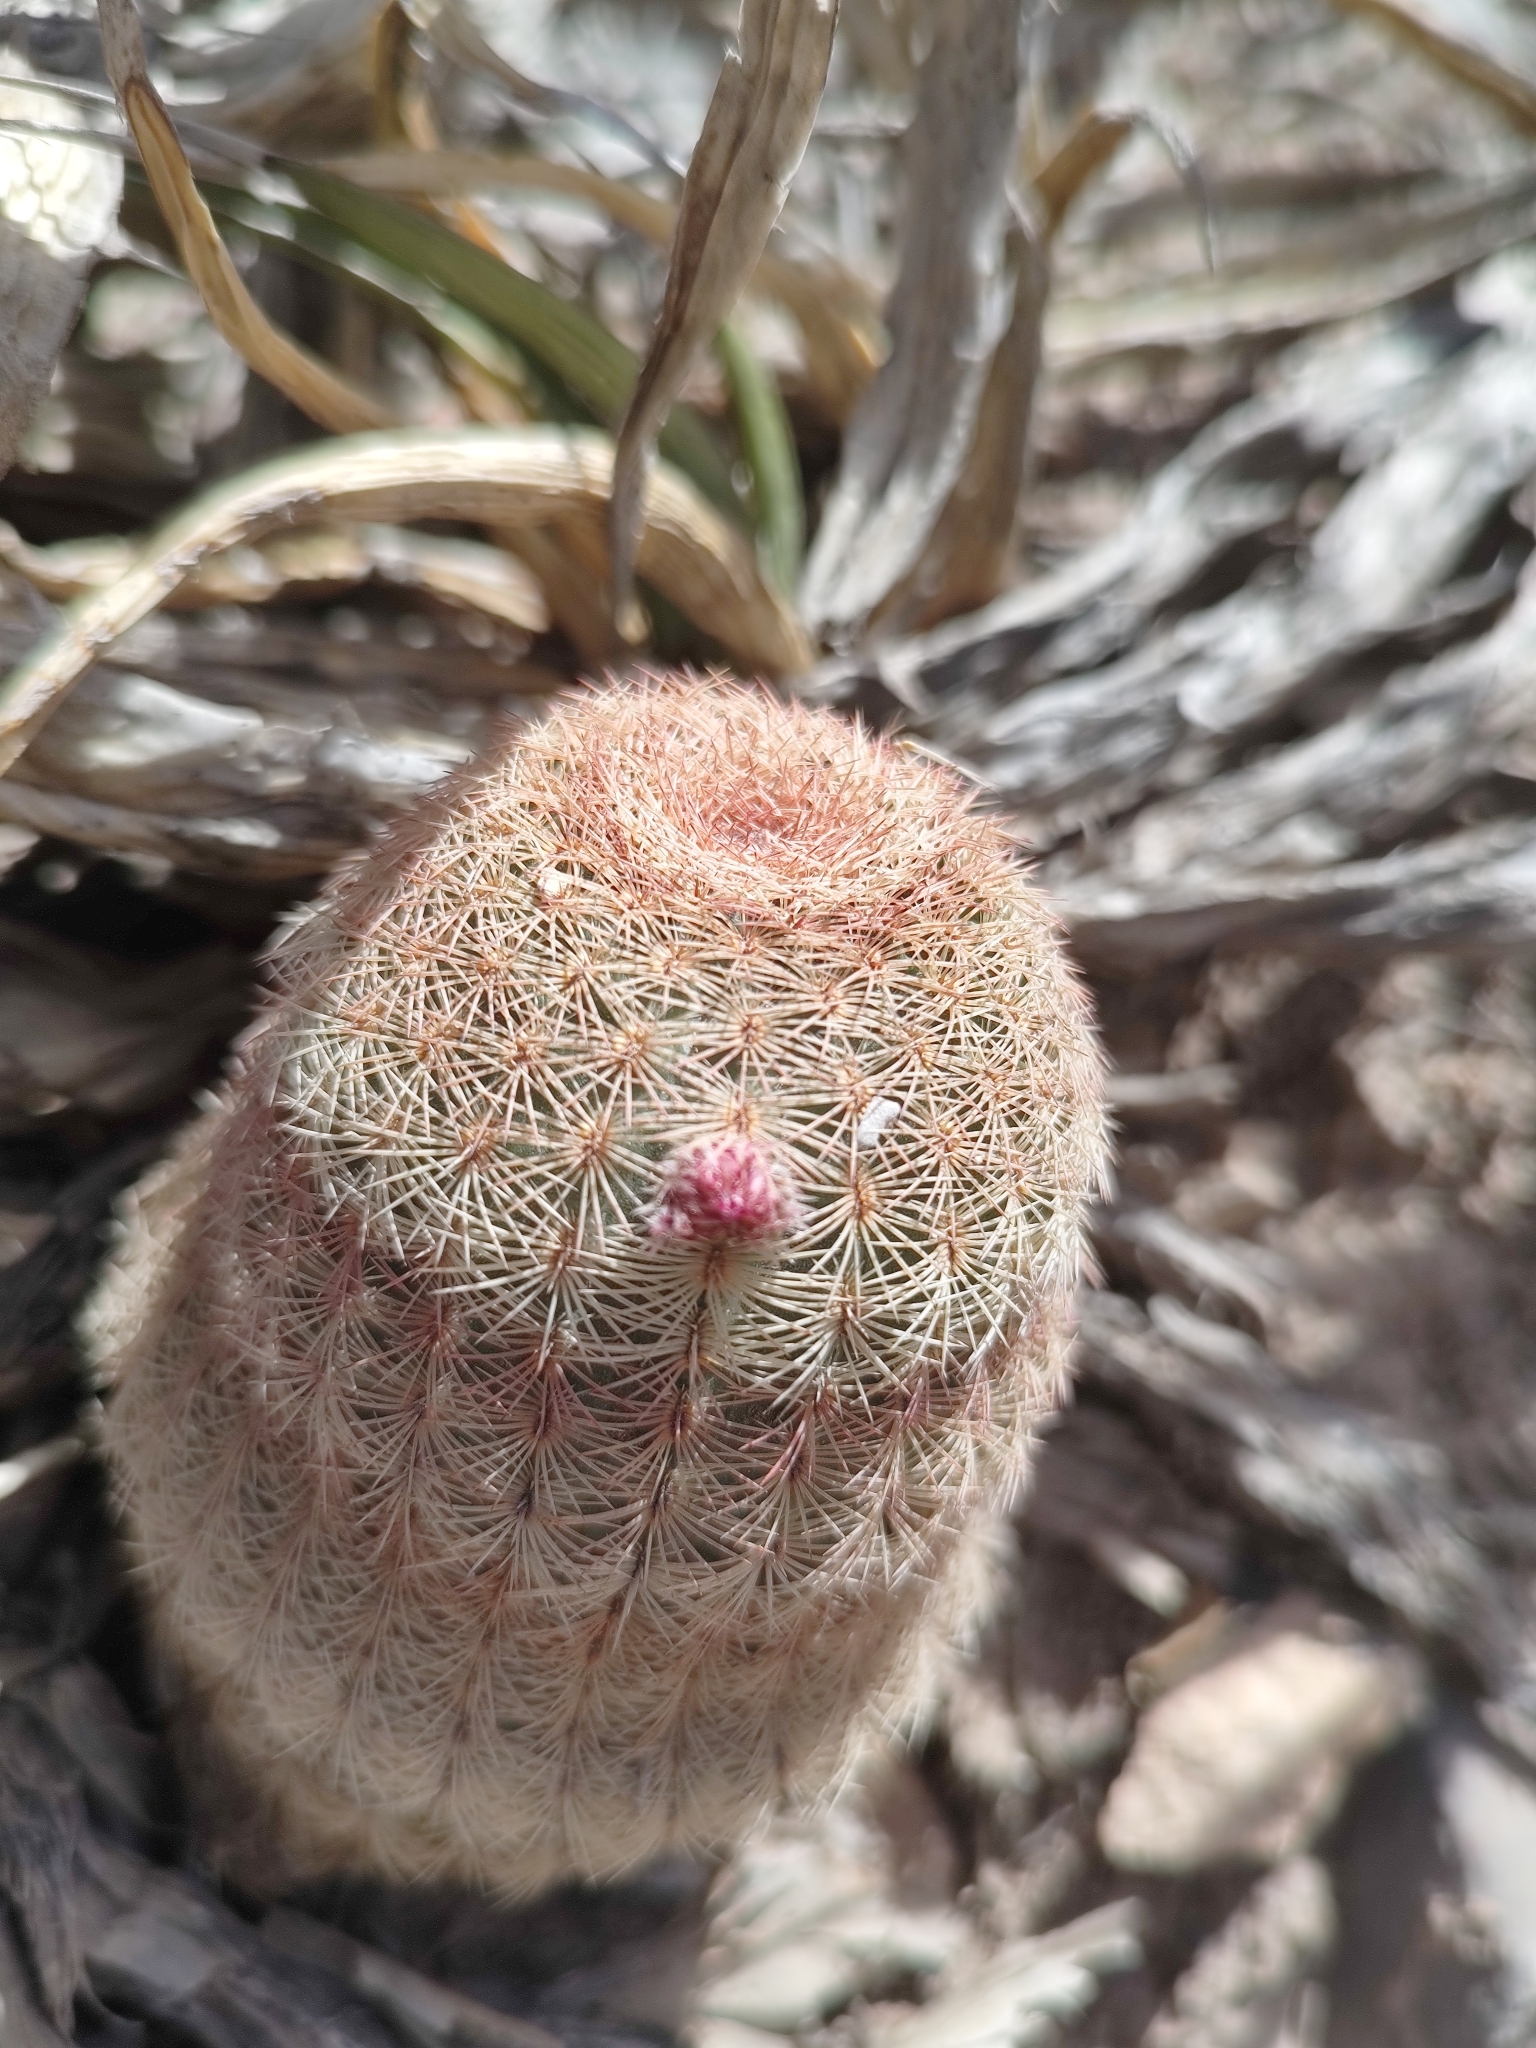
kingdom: Plantae
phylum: Tracheophyta
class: Magnoliopsida
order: Caryophyllales
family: Cactaceae
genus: Echinocereus
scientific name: Echinocereus pectinatus
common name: Rainbow cactus
